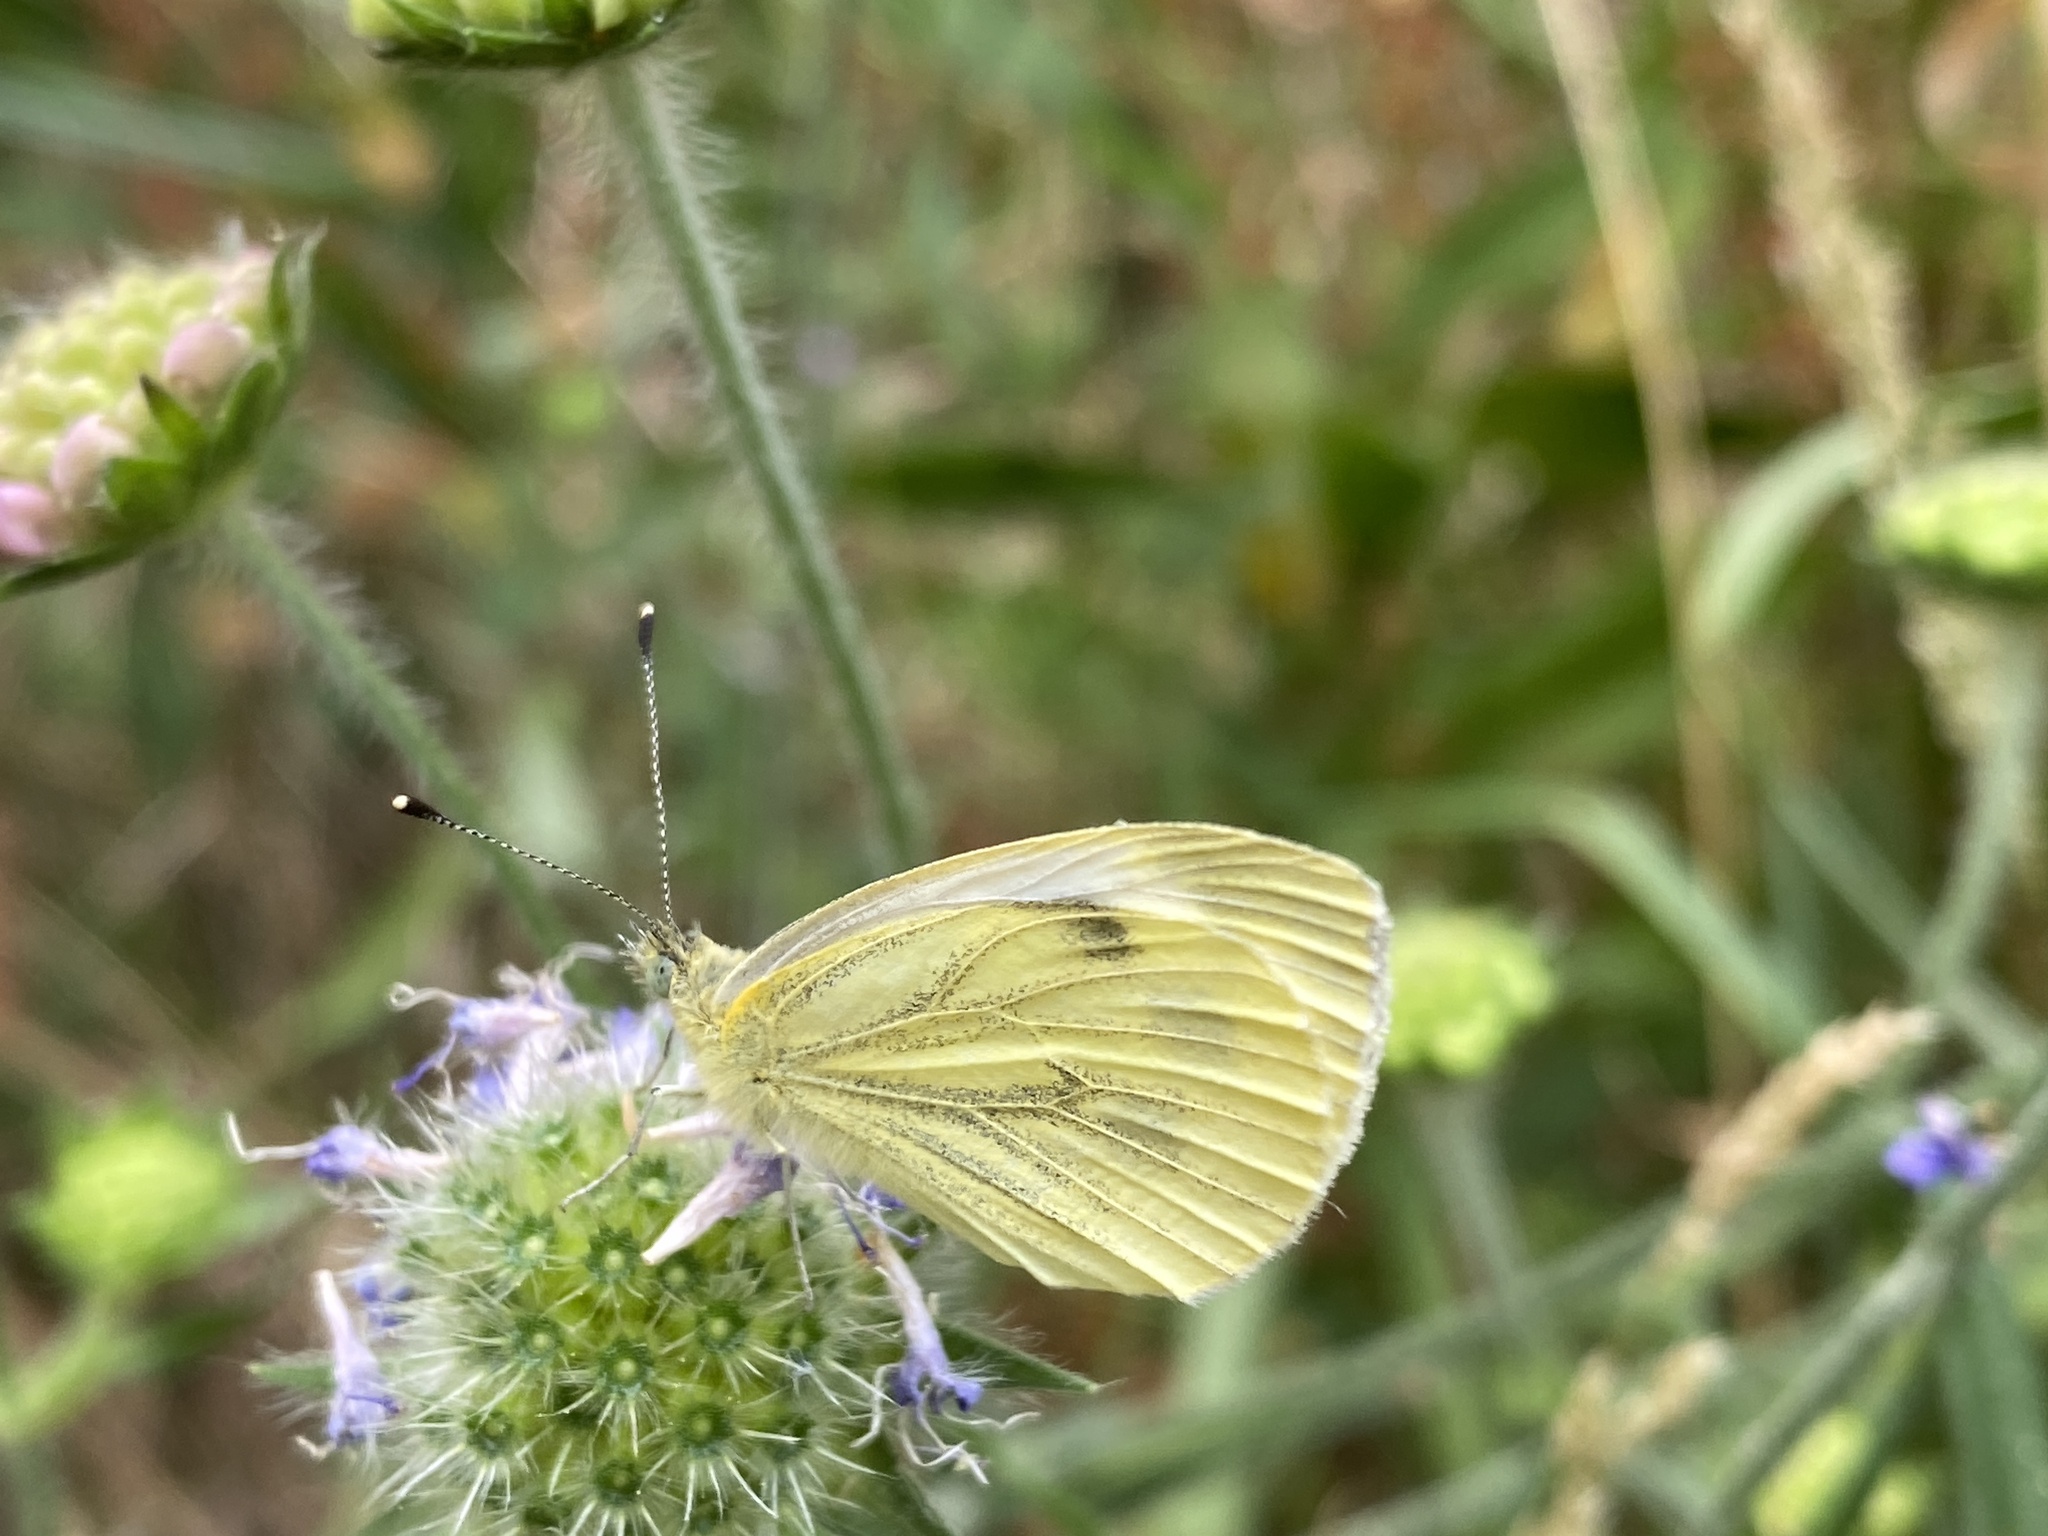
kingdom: Animalia
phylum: Arthropoda
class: Insecta
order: Lepidoptera
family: Pieridae
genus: Pieris
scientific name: Pieris napi
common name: Green-veined white
